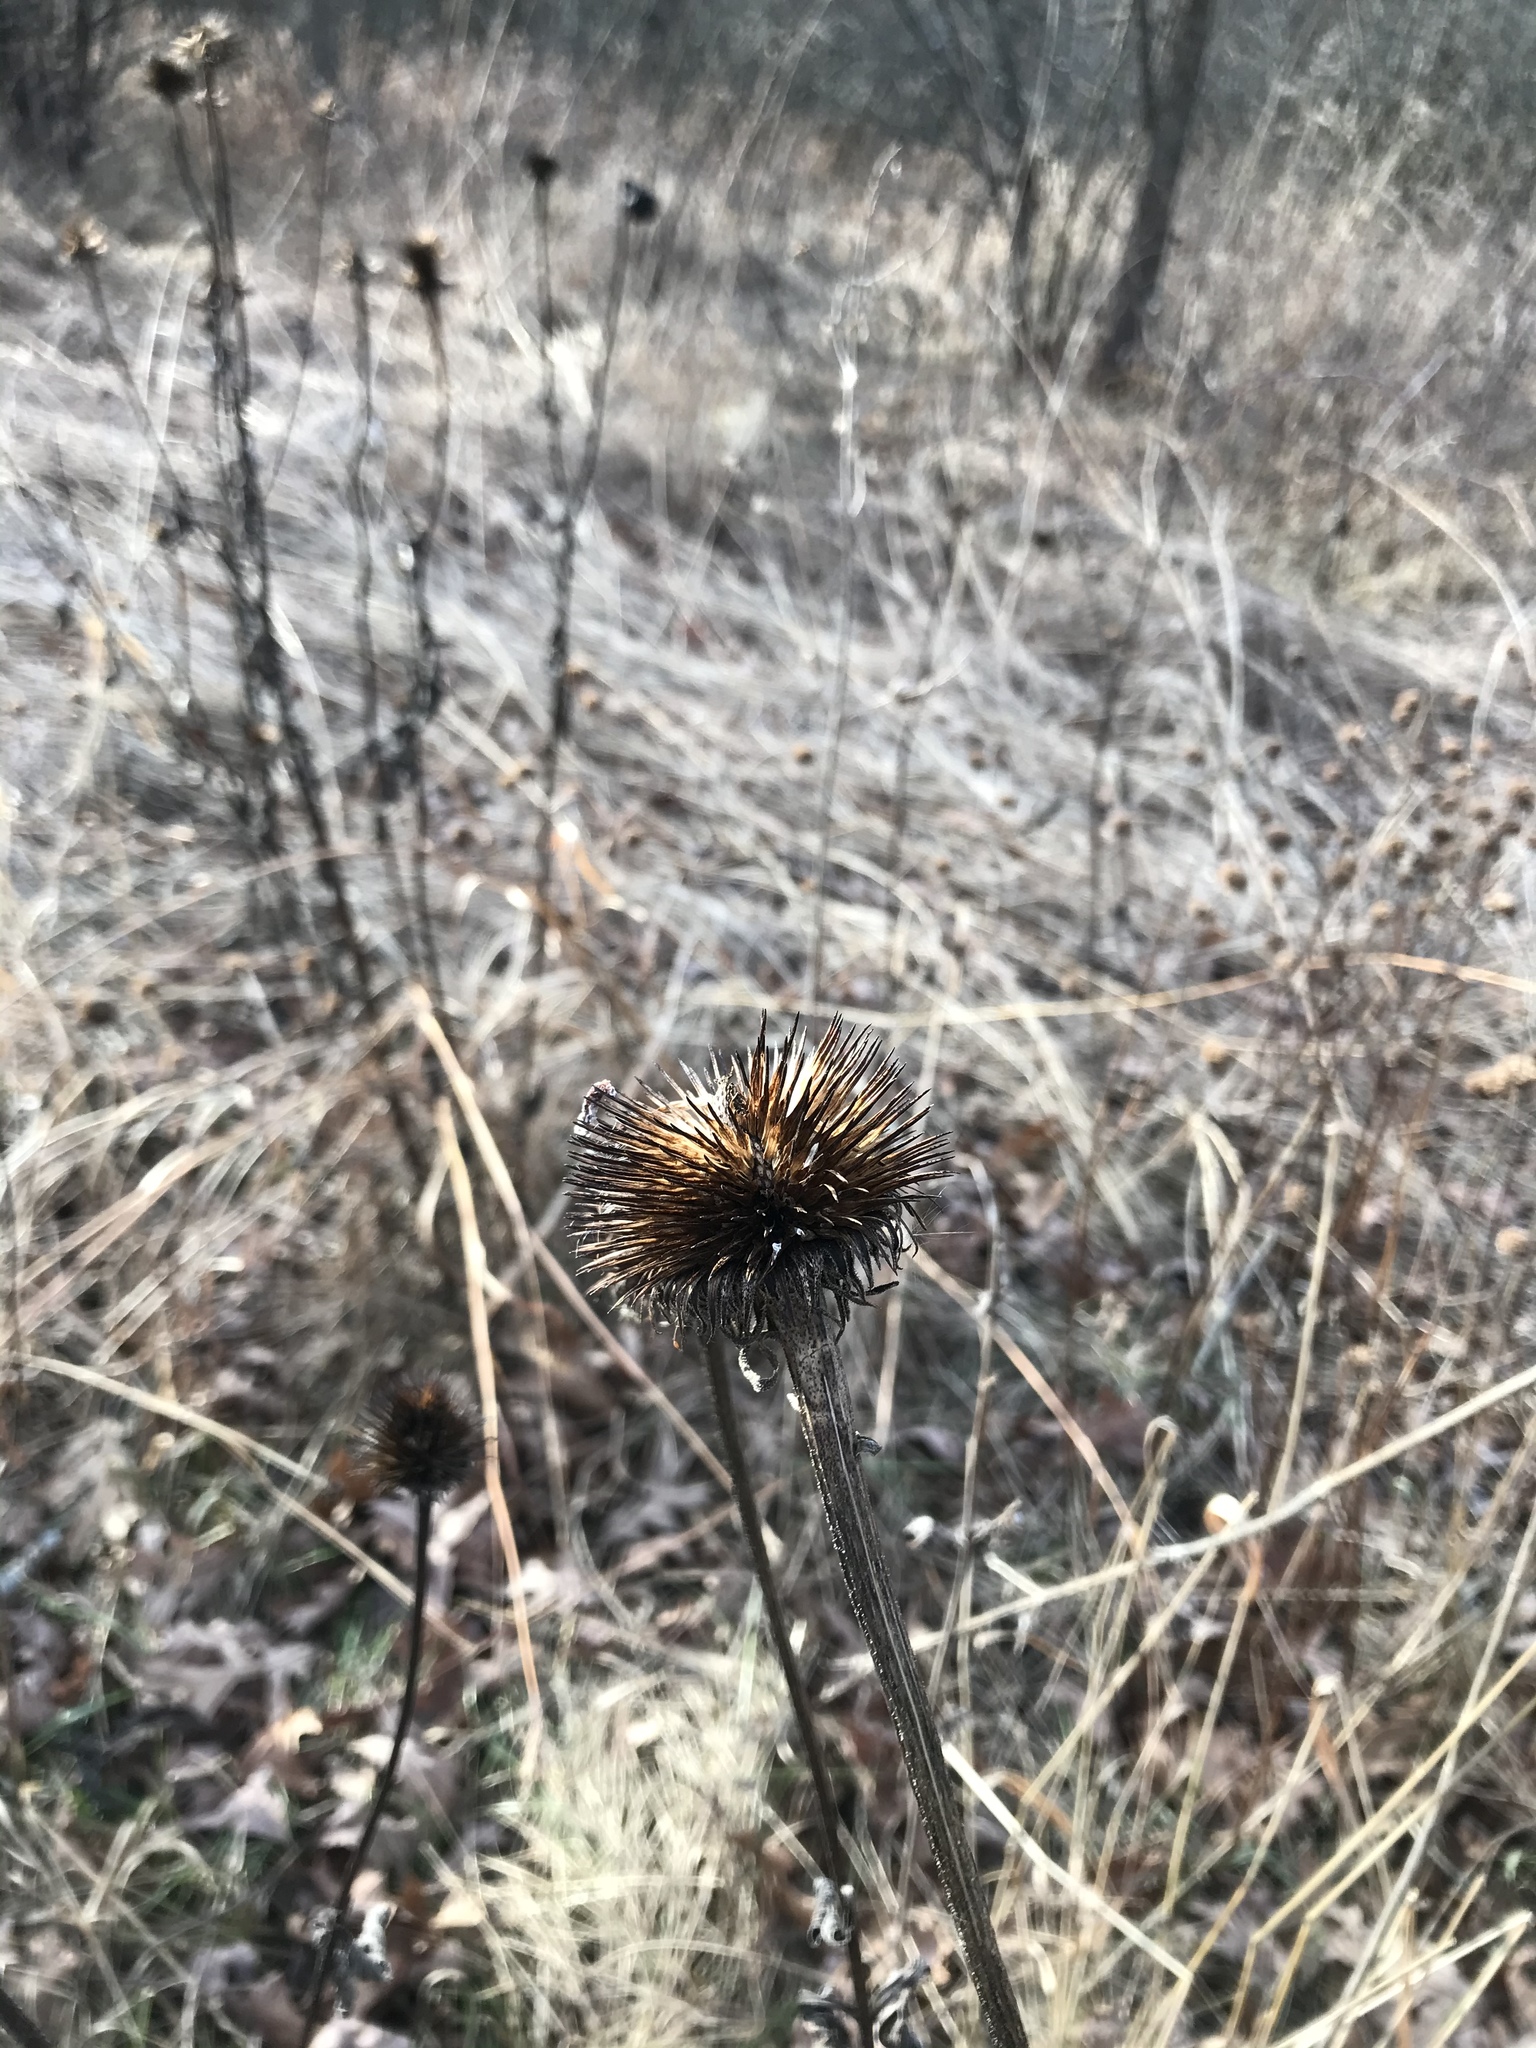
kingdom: Plantae
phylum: Tracheophyta
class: Magnoliopsida
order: Asterales
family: Asteraceae
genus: Echinacea
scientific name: Echinacea purpurea
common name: Broad-leaved purple coneflower
